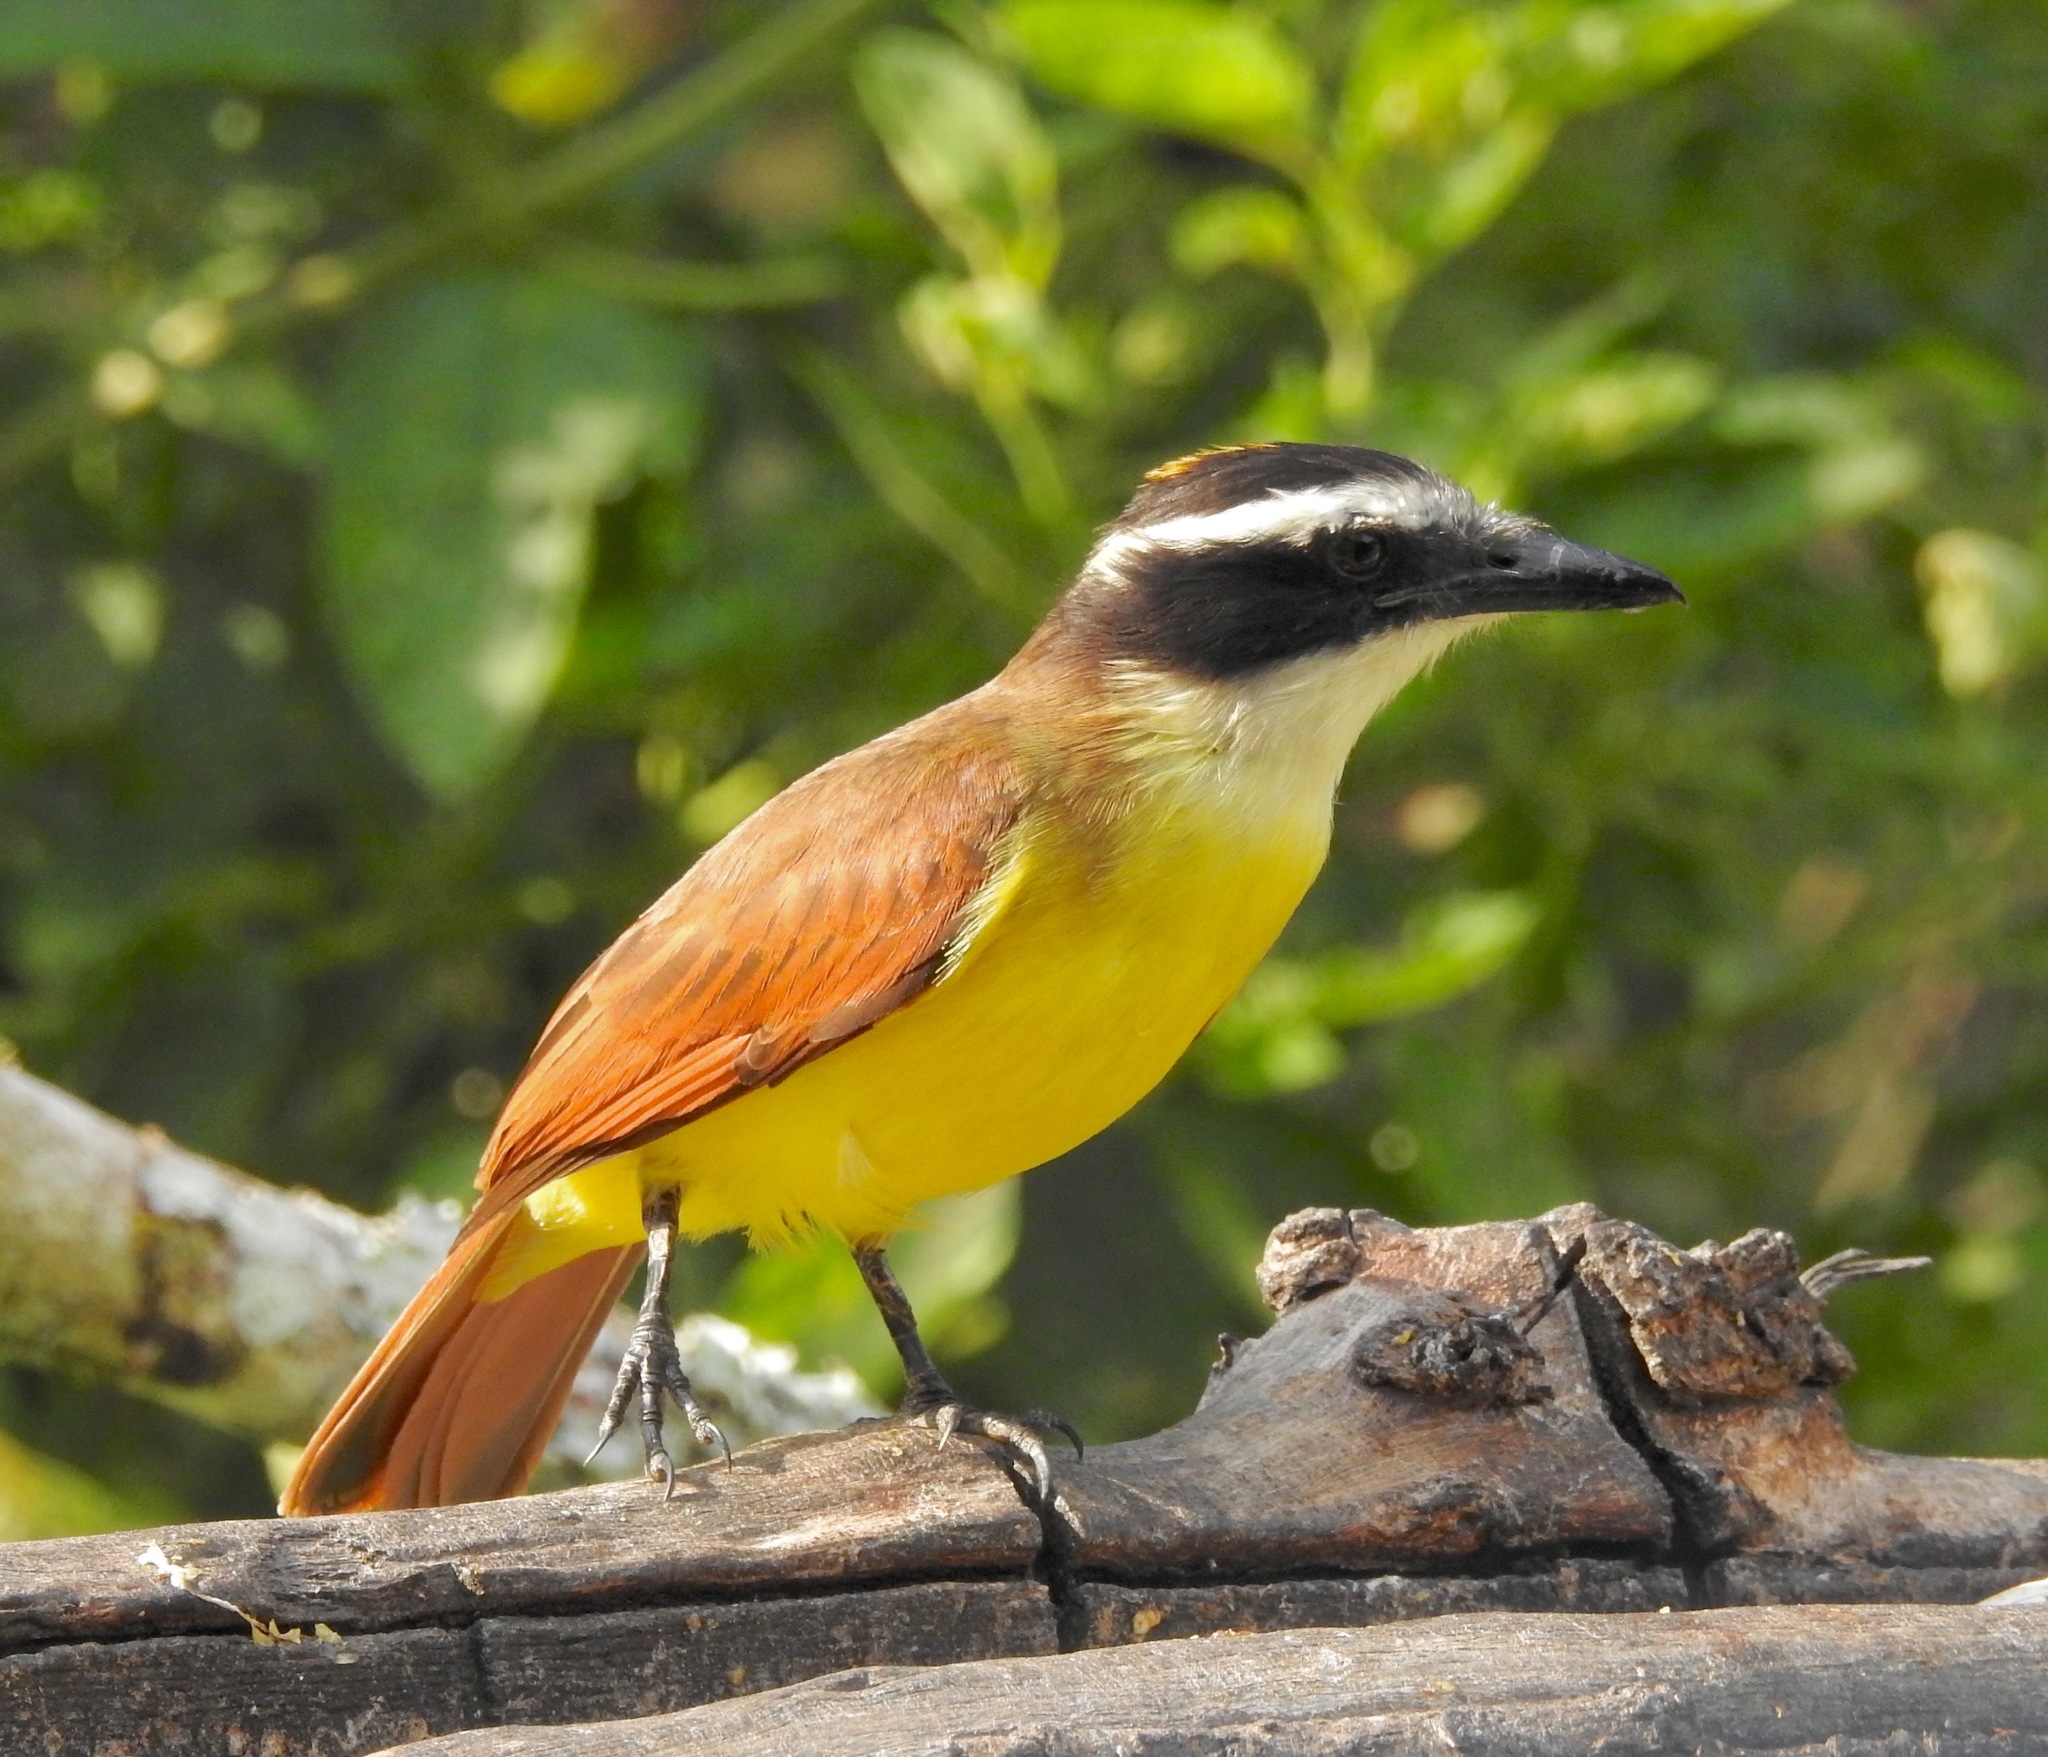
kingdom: Animalia
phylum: Chordata
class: Aves
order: Passeriformes
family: Tyrannidae
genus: Pitangus
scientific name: Pitangus sulphuratus
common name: Great kiskadee
